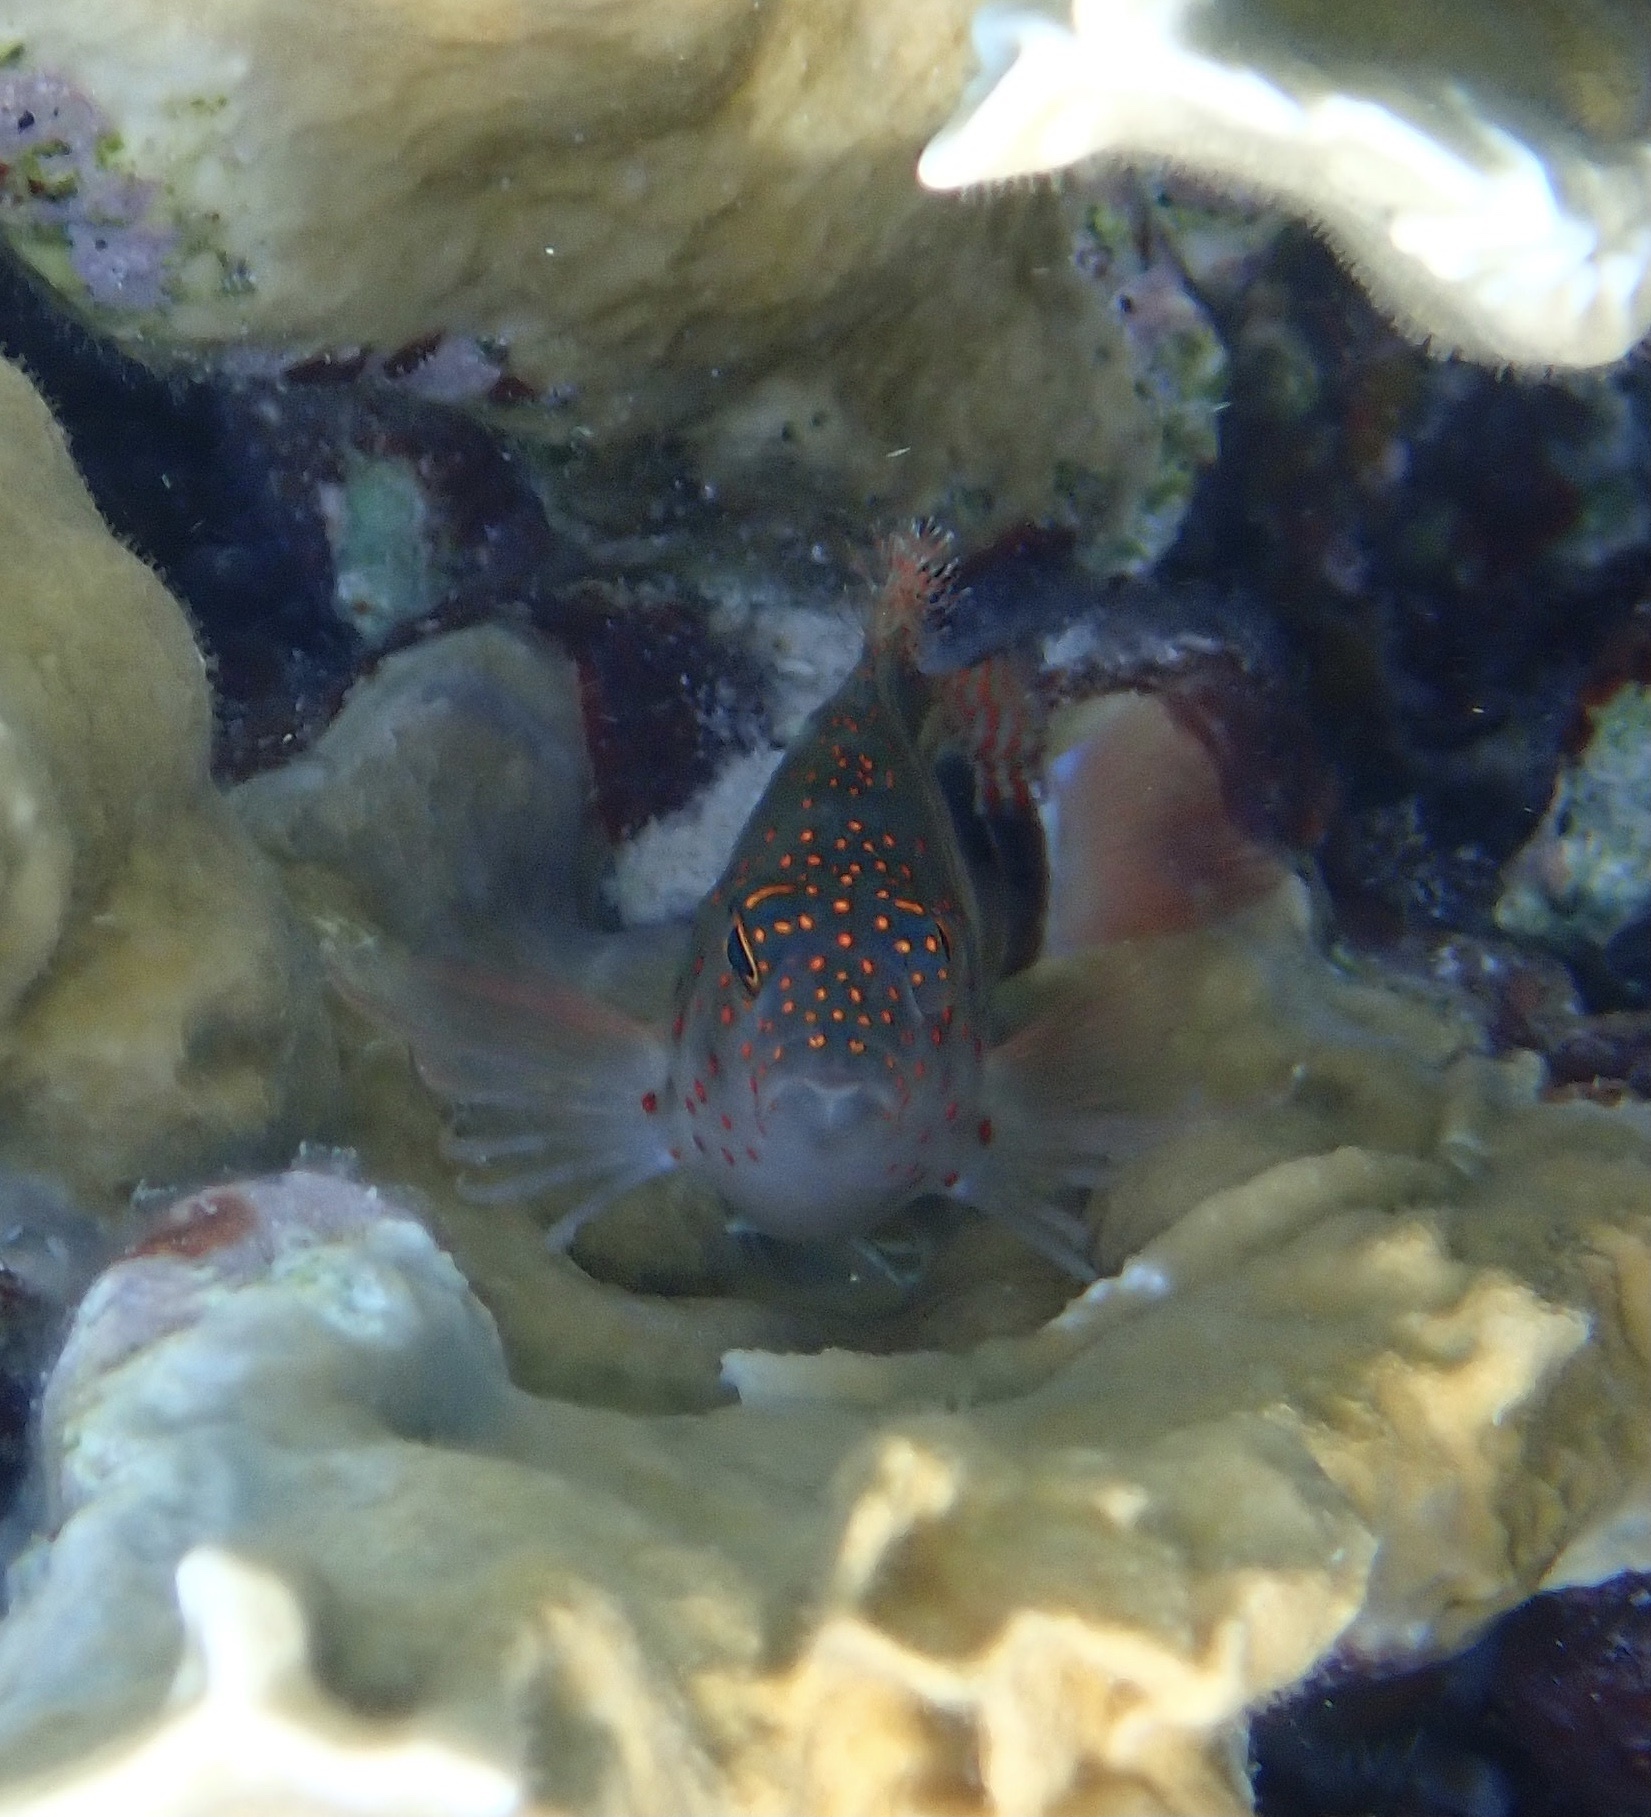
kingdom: Animalia
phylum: Chordata
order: Perciformes
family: Cirrhitidae
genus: Amblycirrhitus
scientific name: Amblycirrhitus pinos
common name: Redspotted hawkfish
